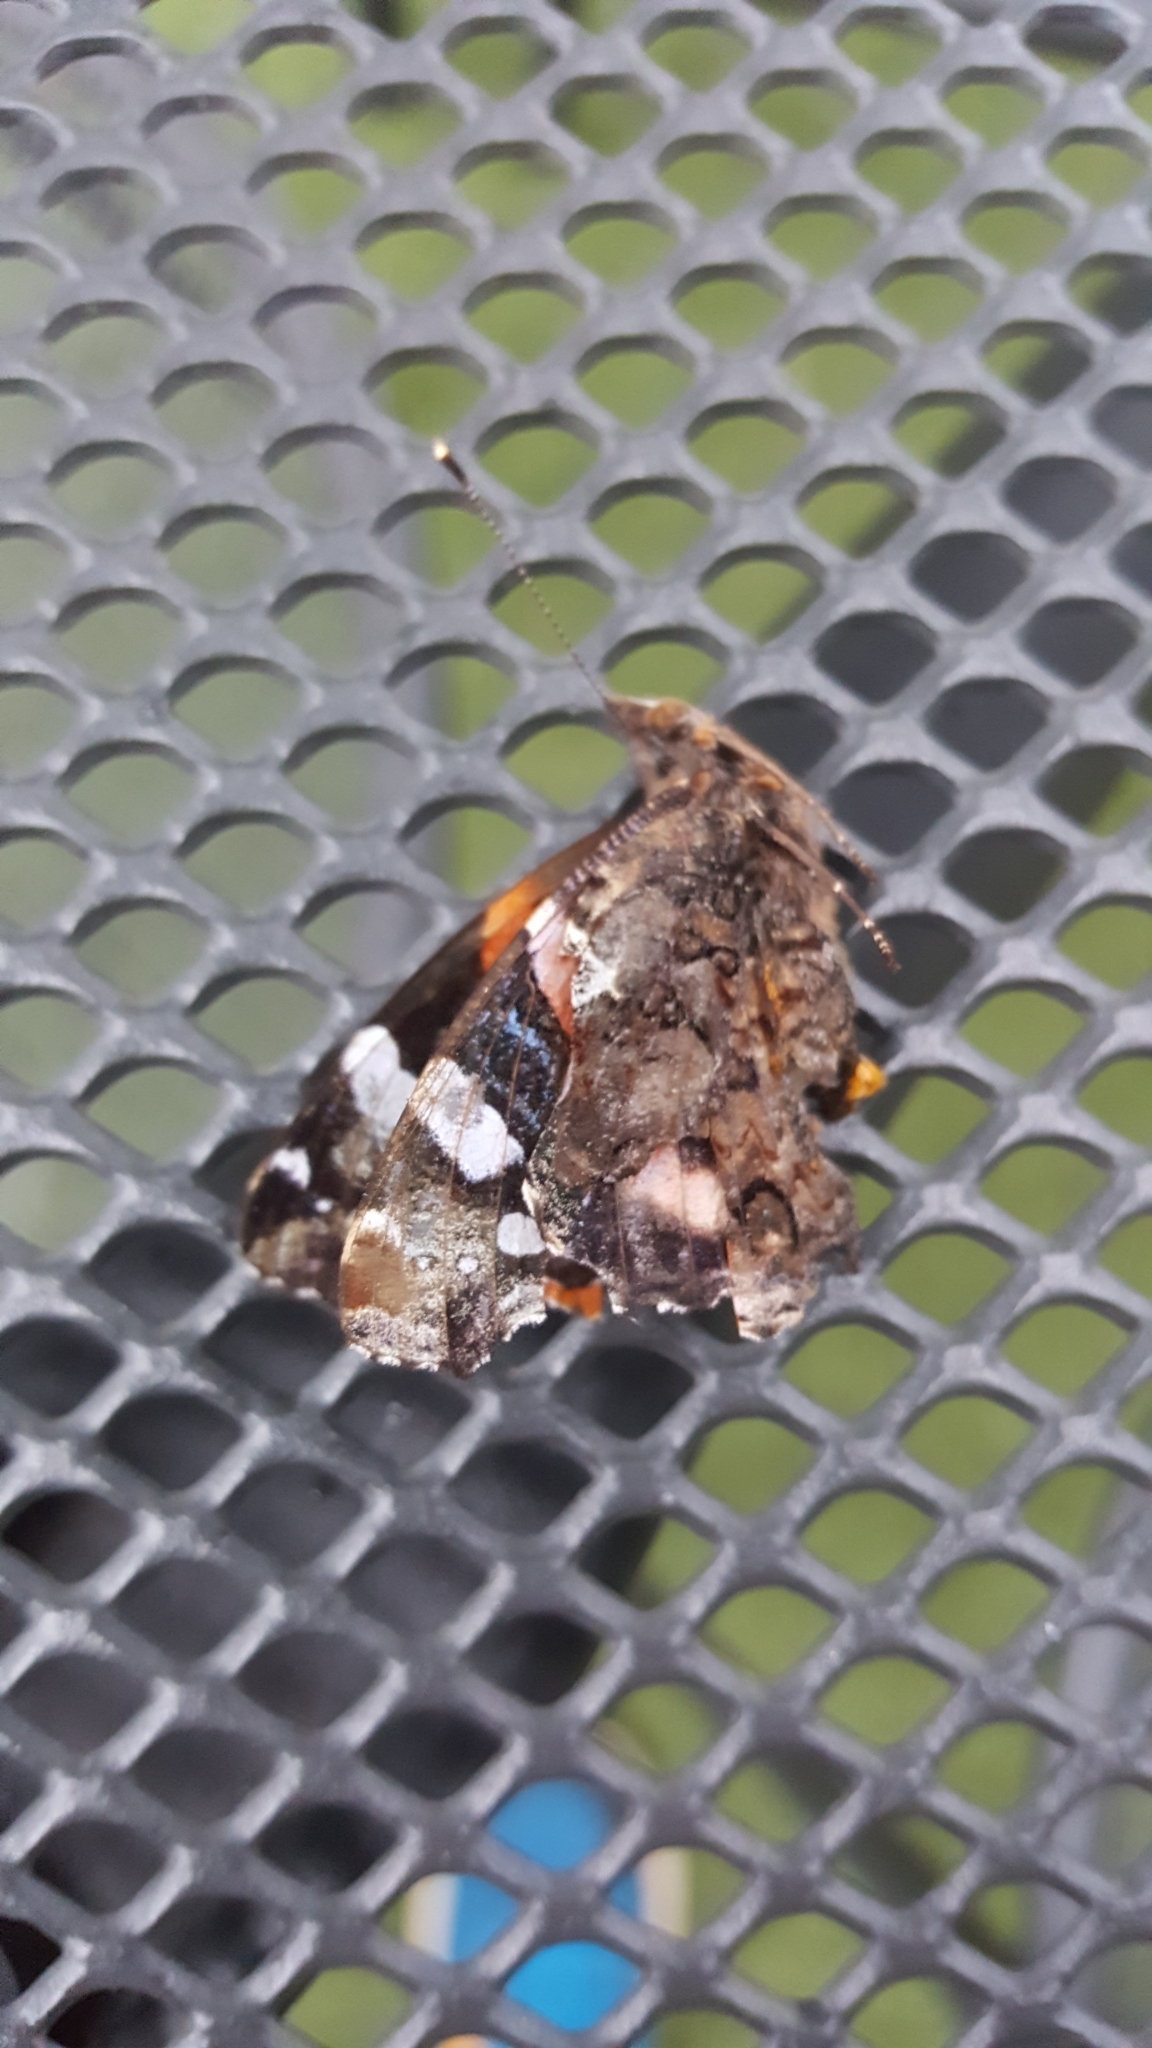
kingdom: Animalia
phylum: Arthropoda
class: Insecta
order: Lepidoptera
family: Nymphalidae
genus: Vanessa
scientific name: Vanessa atalanta
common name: Red admiral
